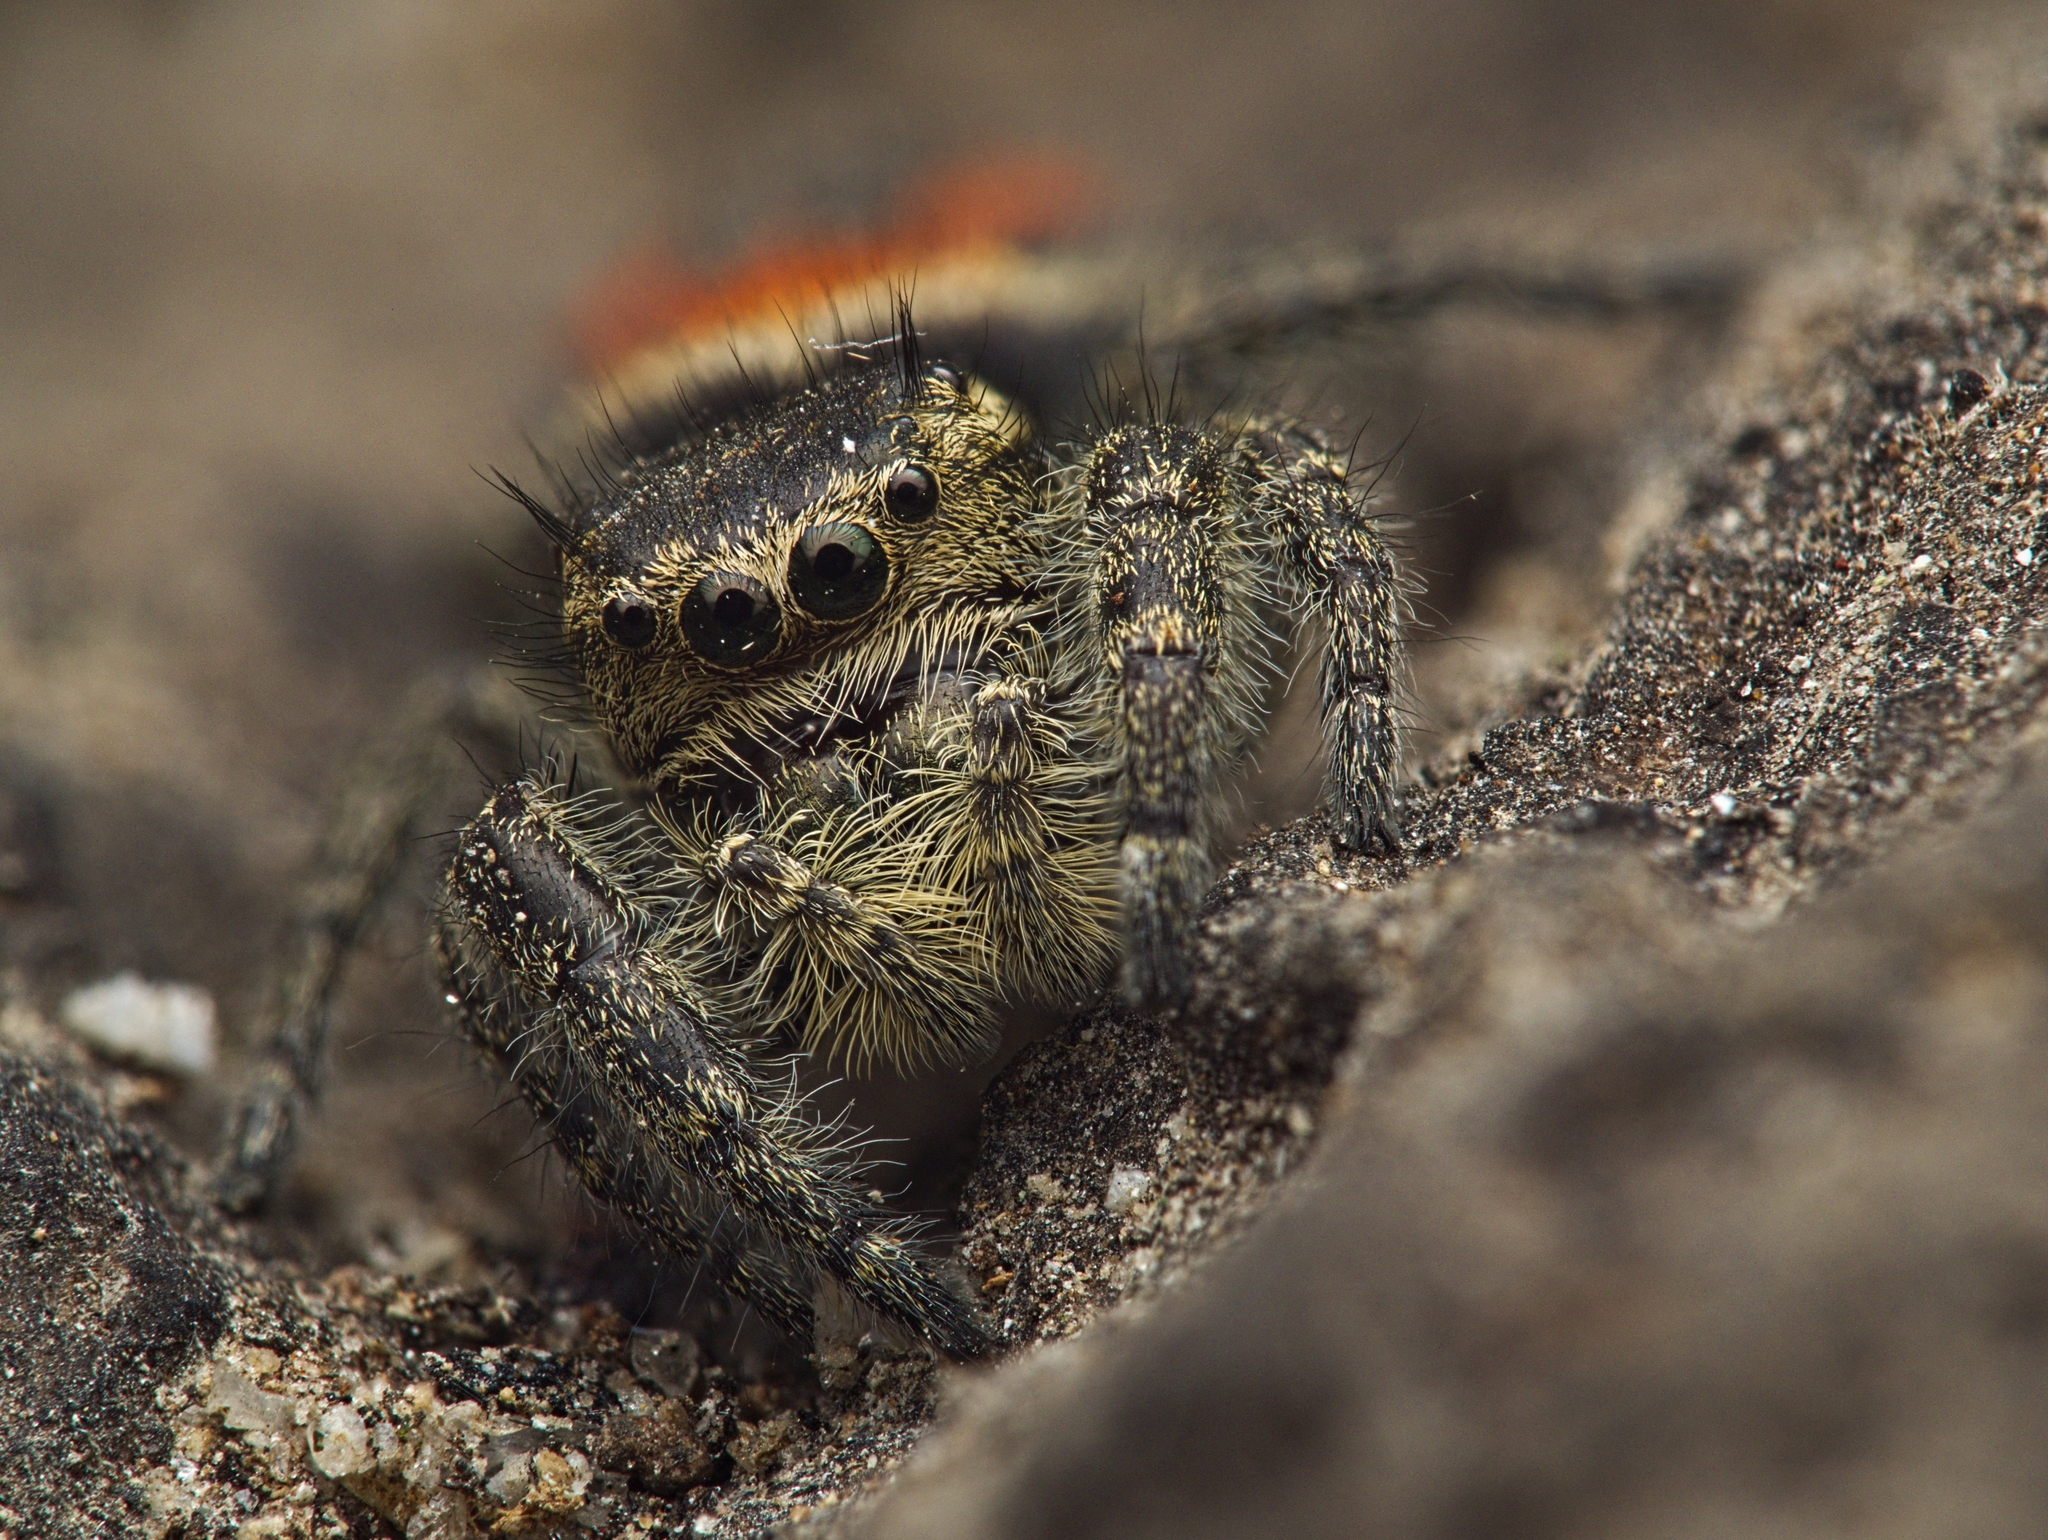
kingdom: Animalia
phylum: Arthropoda
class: Arachnida
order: Araneae
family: Salticidae
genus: Phidippus
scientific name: Phidippus pompatus
